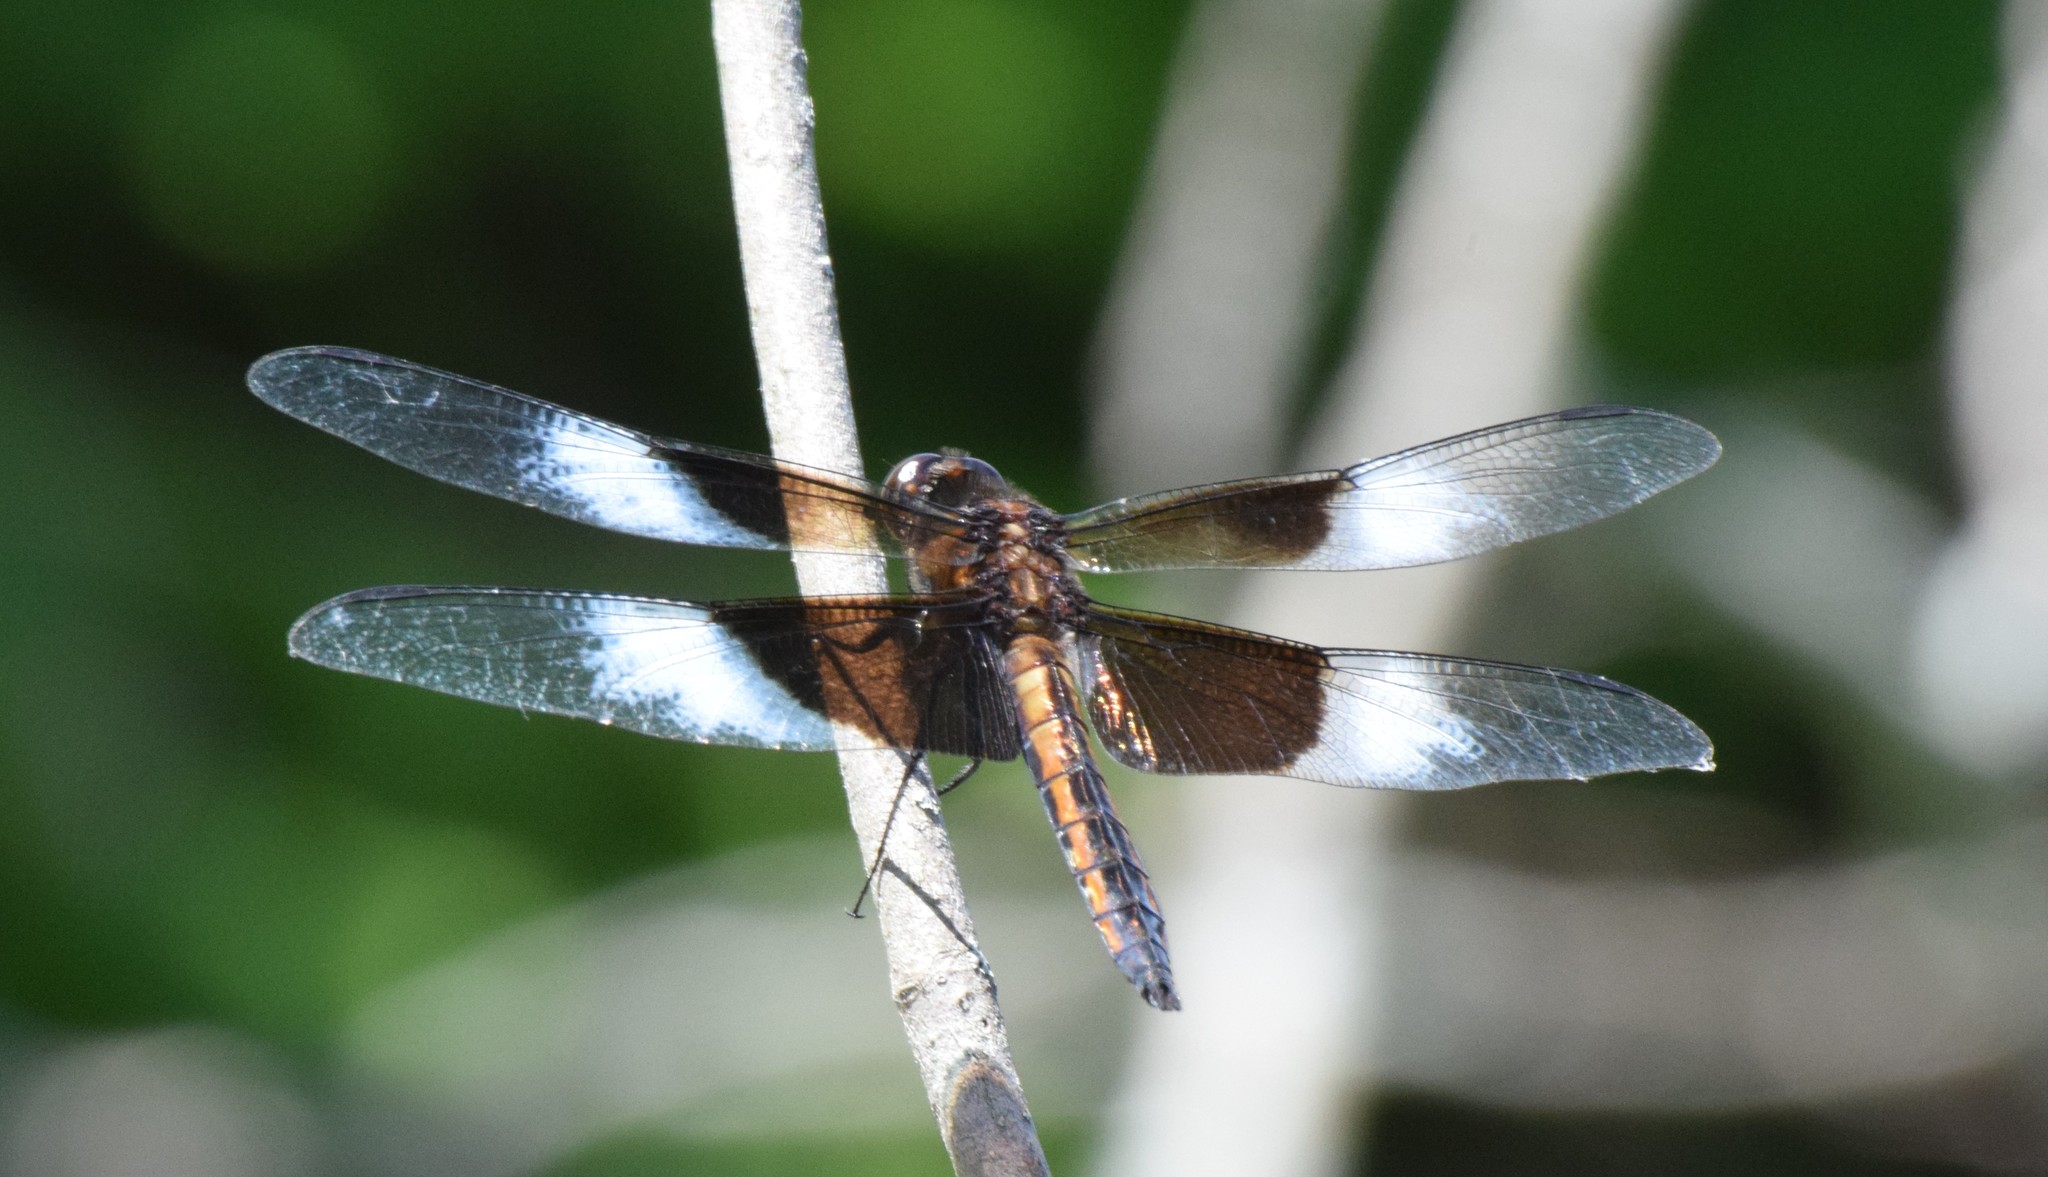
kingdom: Animalia
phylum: Arthropoda
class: Insecta
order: Odonata
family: Libellulidae
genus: Libellula
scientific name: Libellula luctuosa
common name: Widow skimmer
